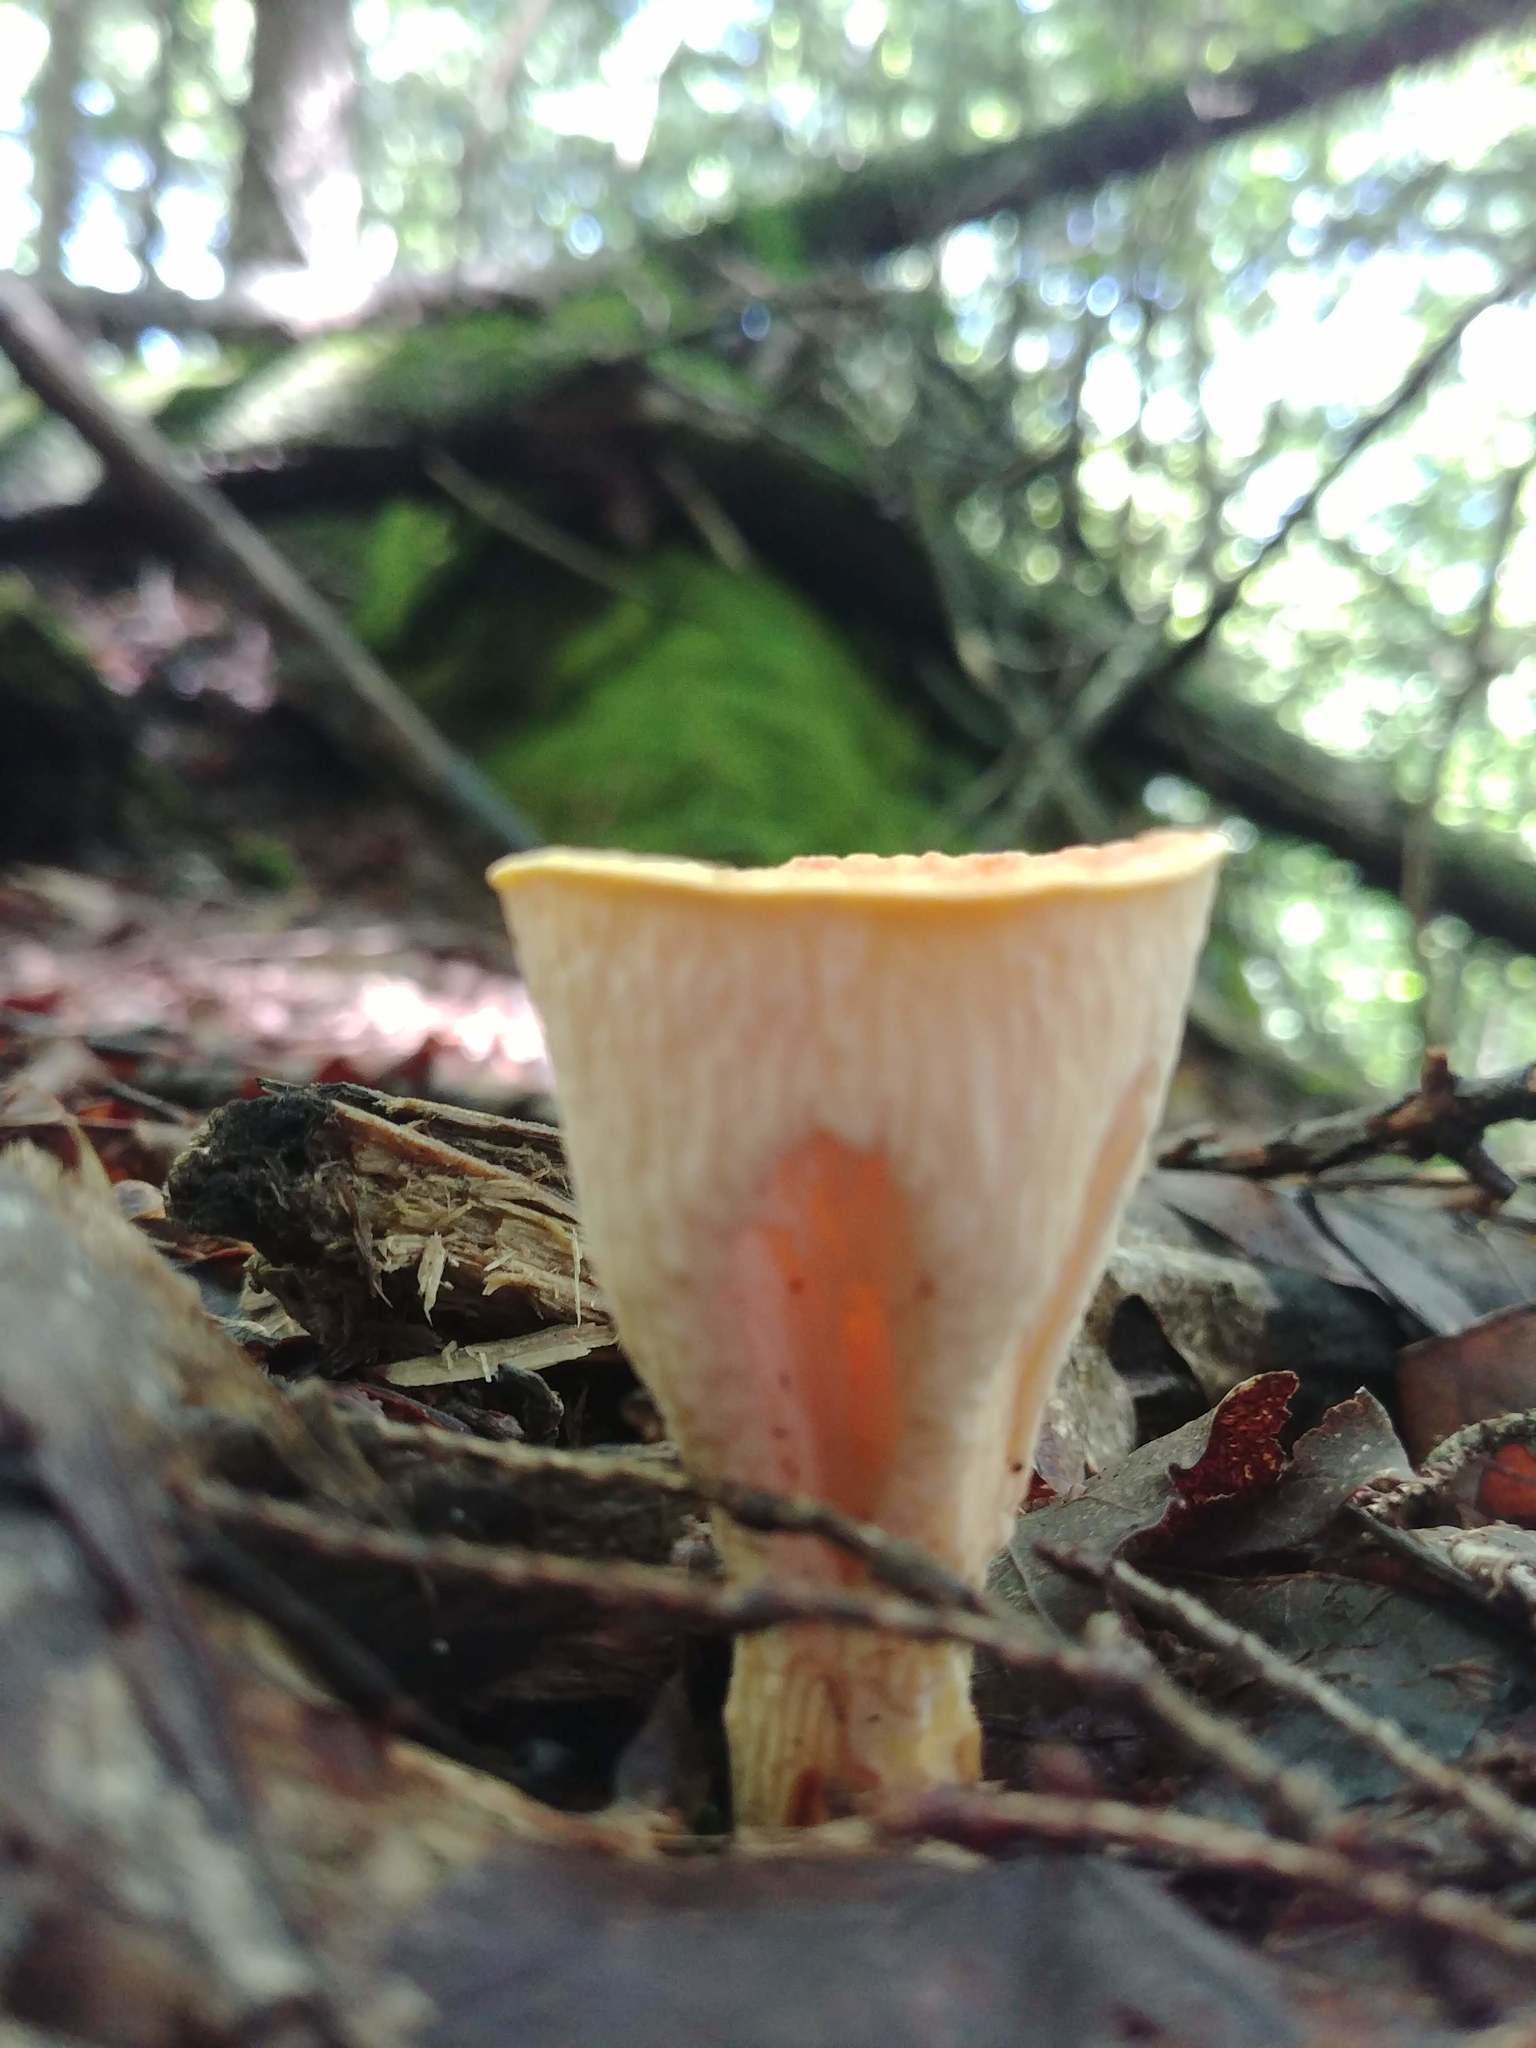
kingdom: Fungi
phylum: Basidiomycota
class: Agaricomycetes
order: Gomphales
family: Gomphaceae
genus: Turbinellus
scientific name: Turbinellus floccosus
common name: Scaly chanterelle
